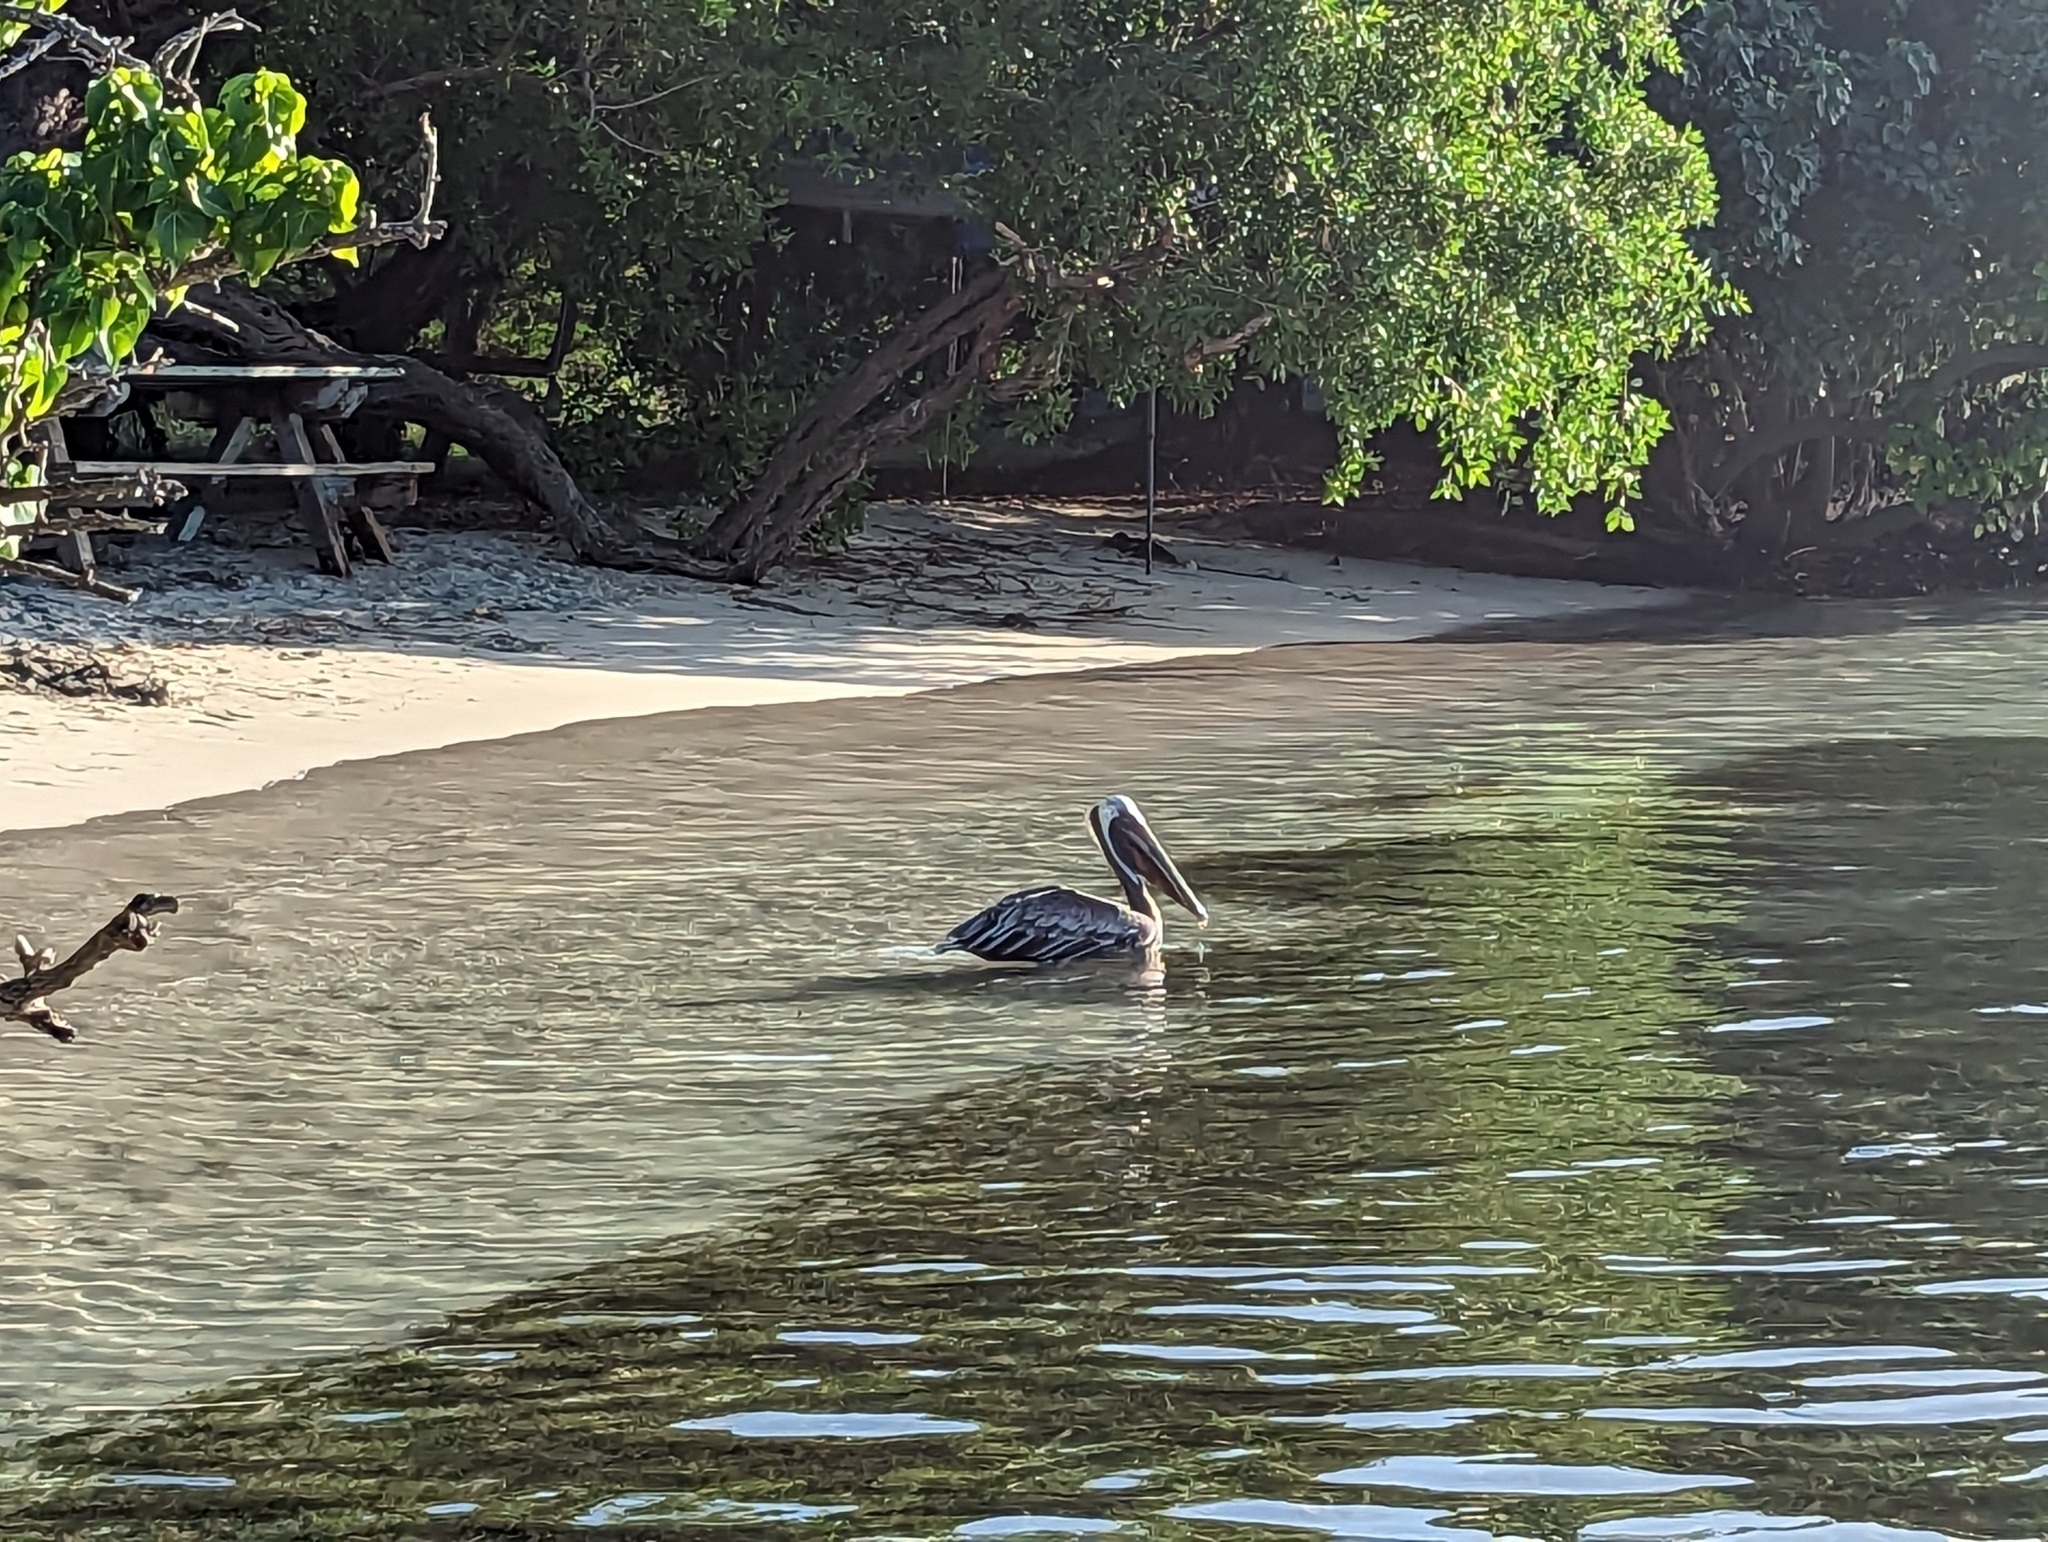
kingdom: Animalia
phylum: Chordata
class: Aves
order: Pelecaniformes
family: Pelecanidae
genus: Pelecanus
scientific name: Pelecanus occidentalis
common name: Brown pelican
